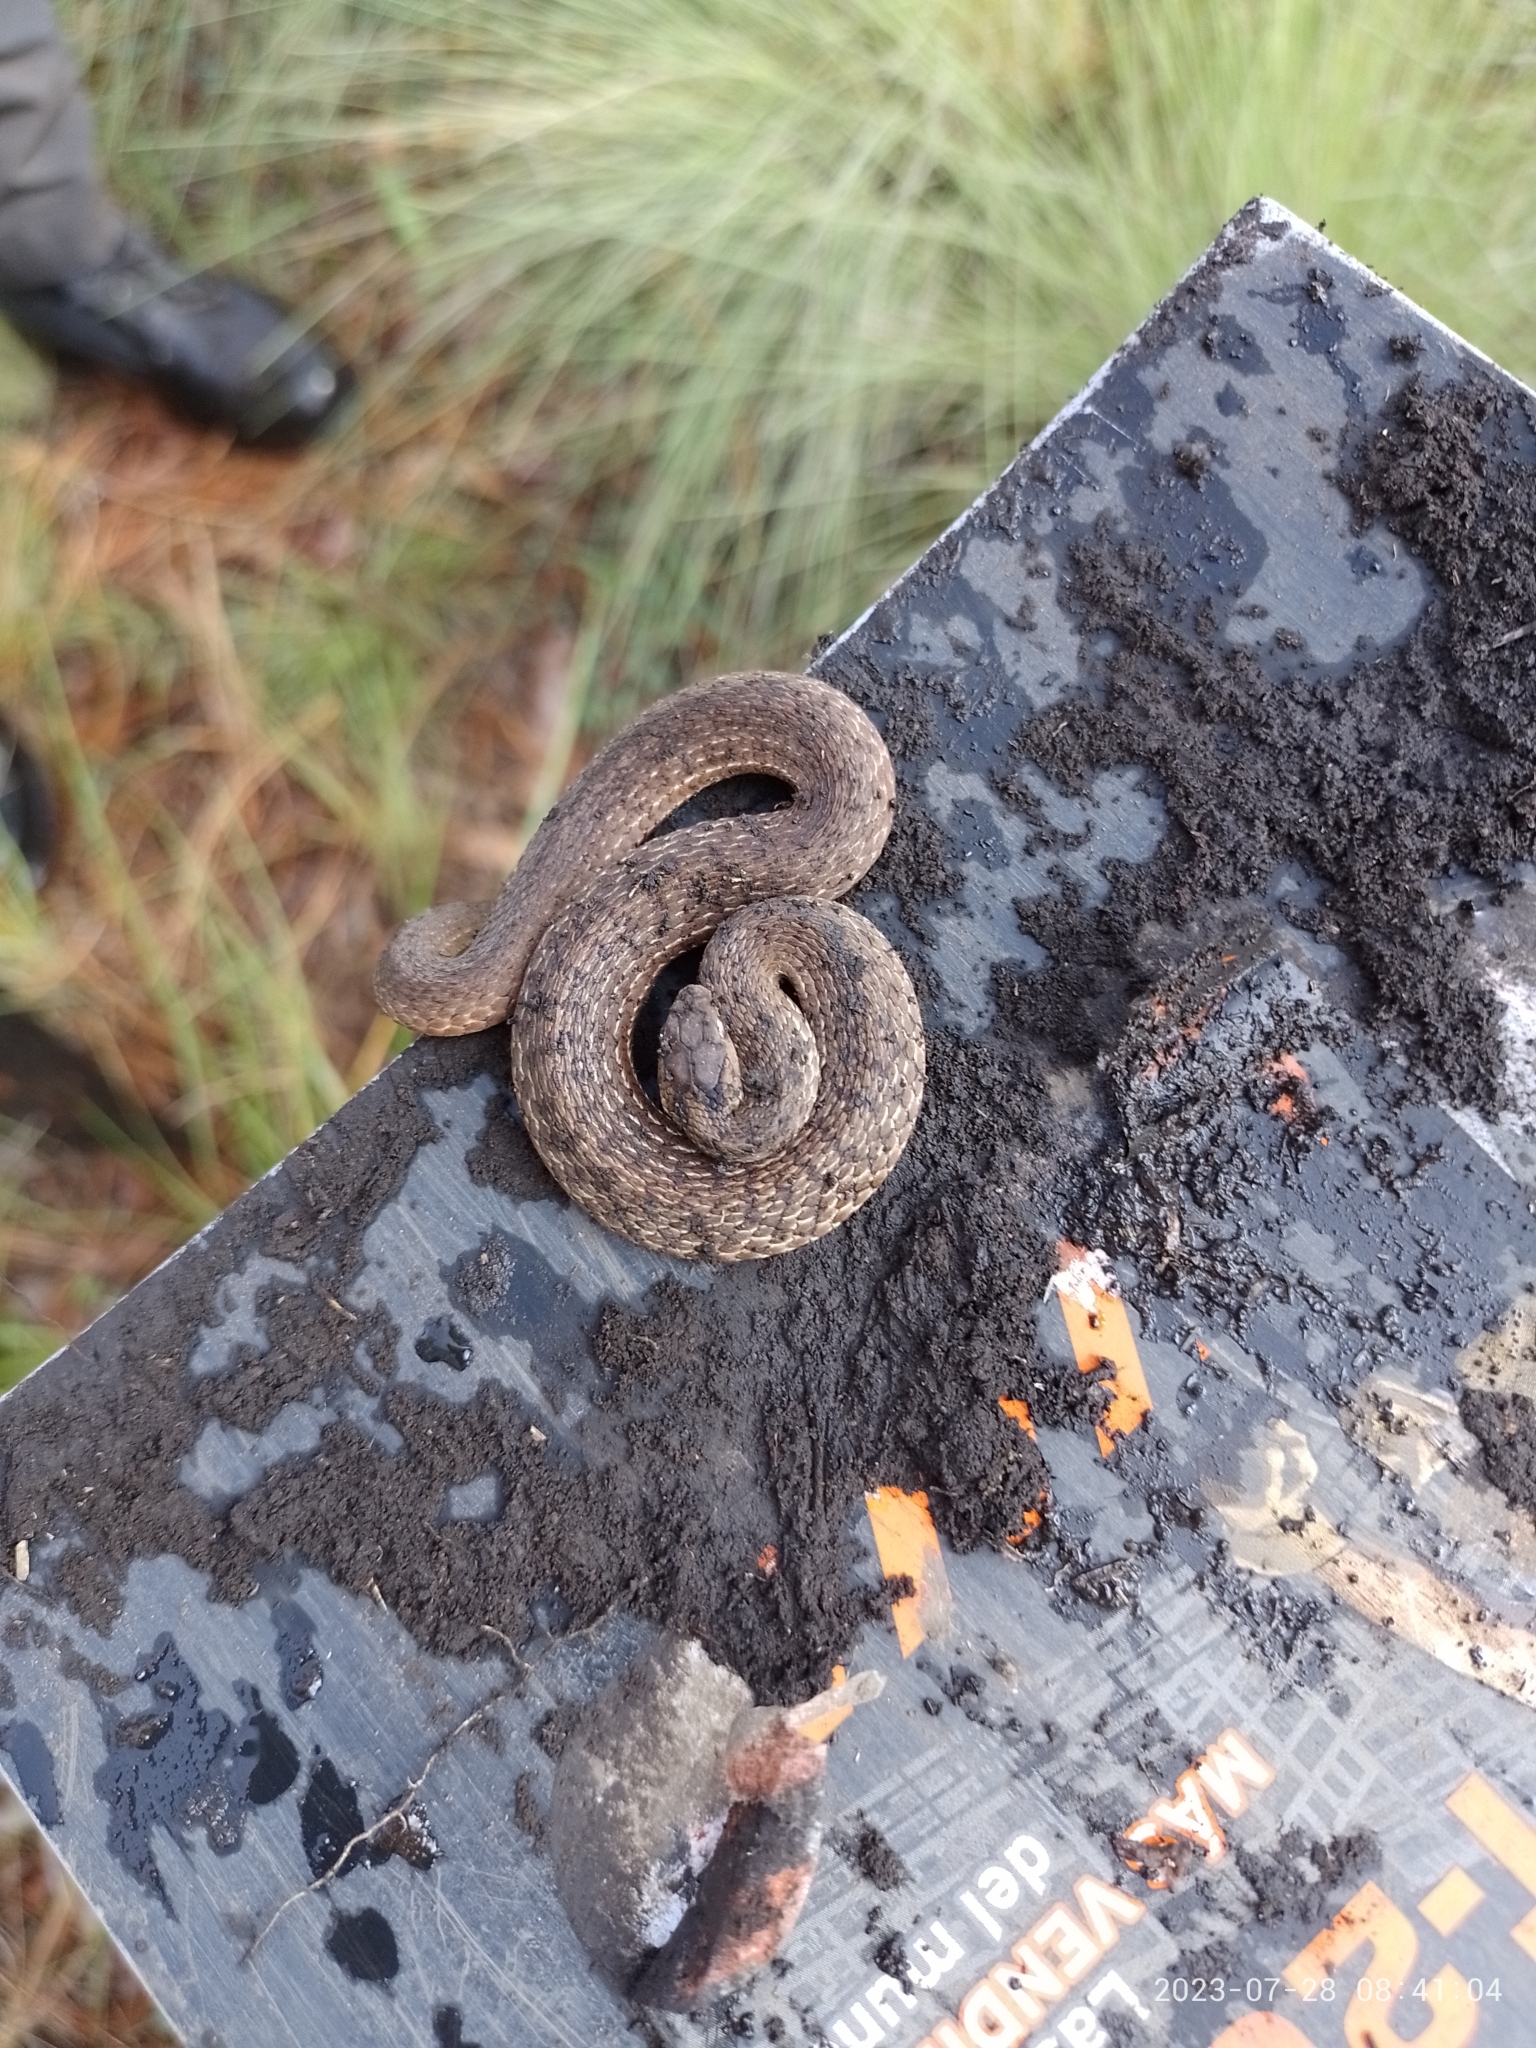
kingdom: Animalia
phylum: Chordata
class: Squamata
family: Colubridae
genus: Storeria
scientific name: Storeria storerioides
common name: Mexican brown snake
